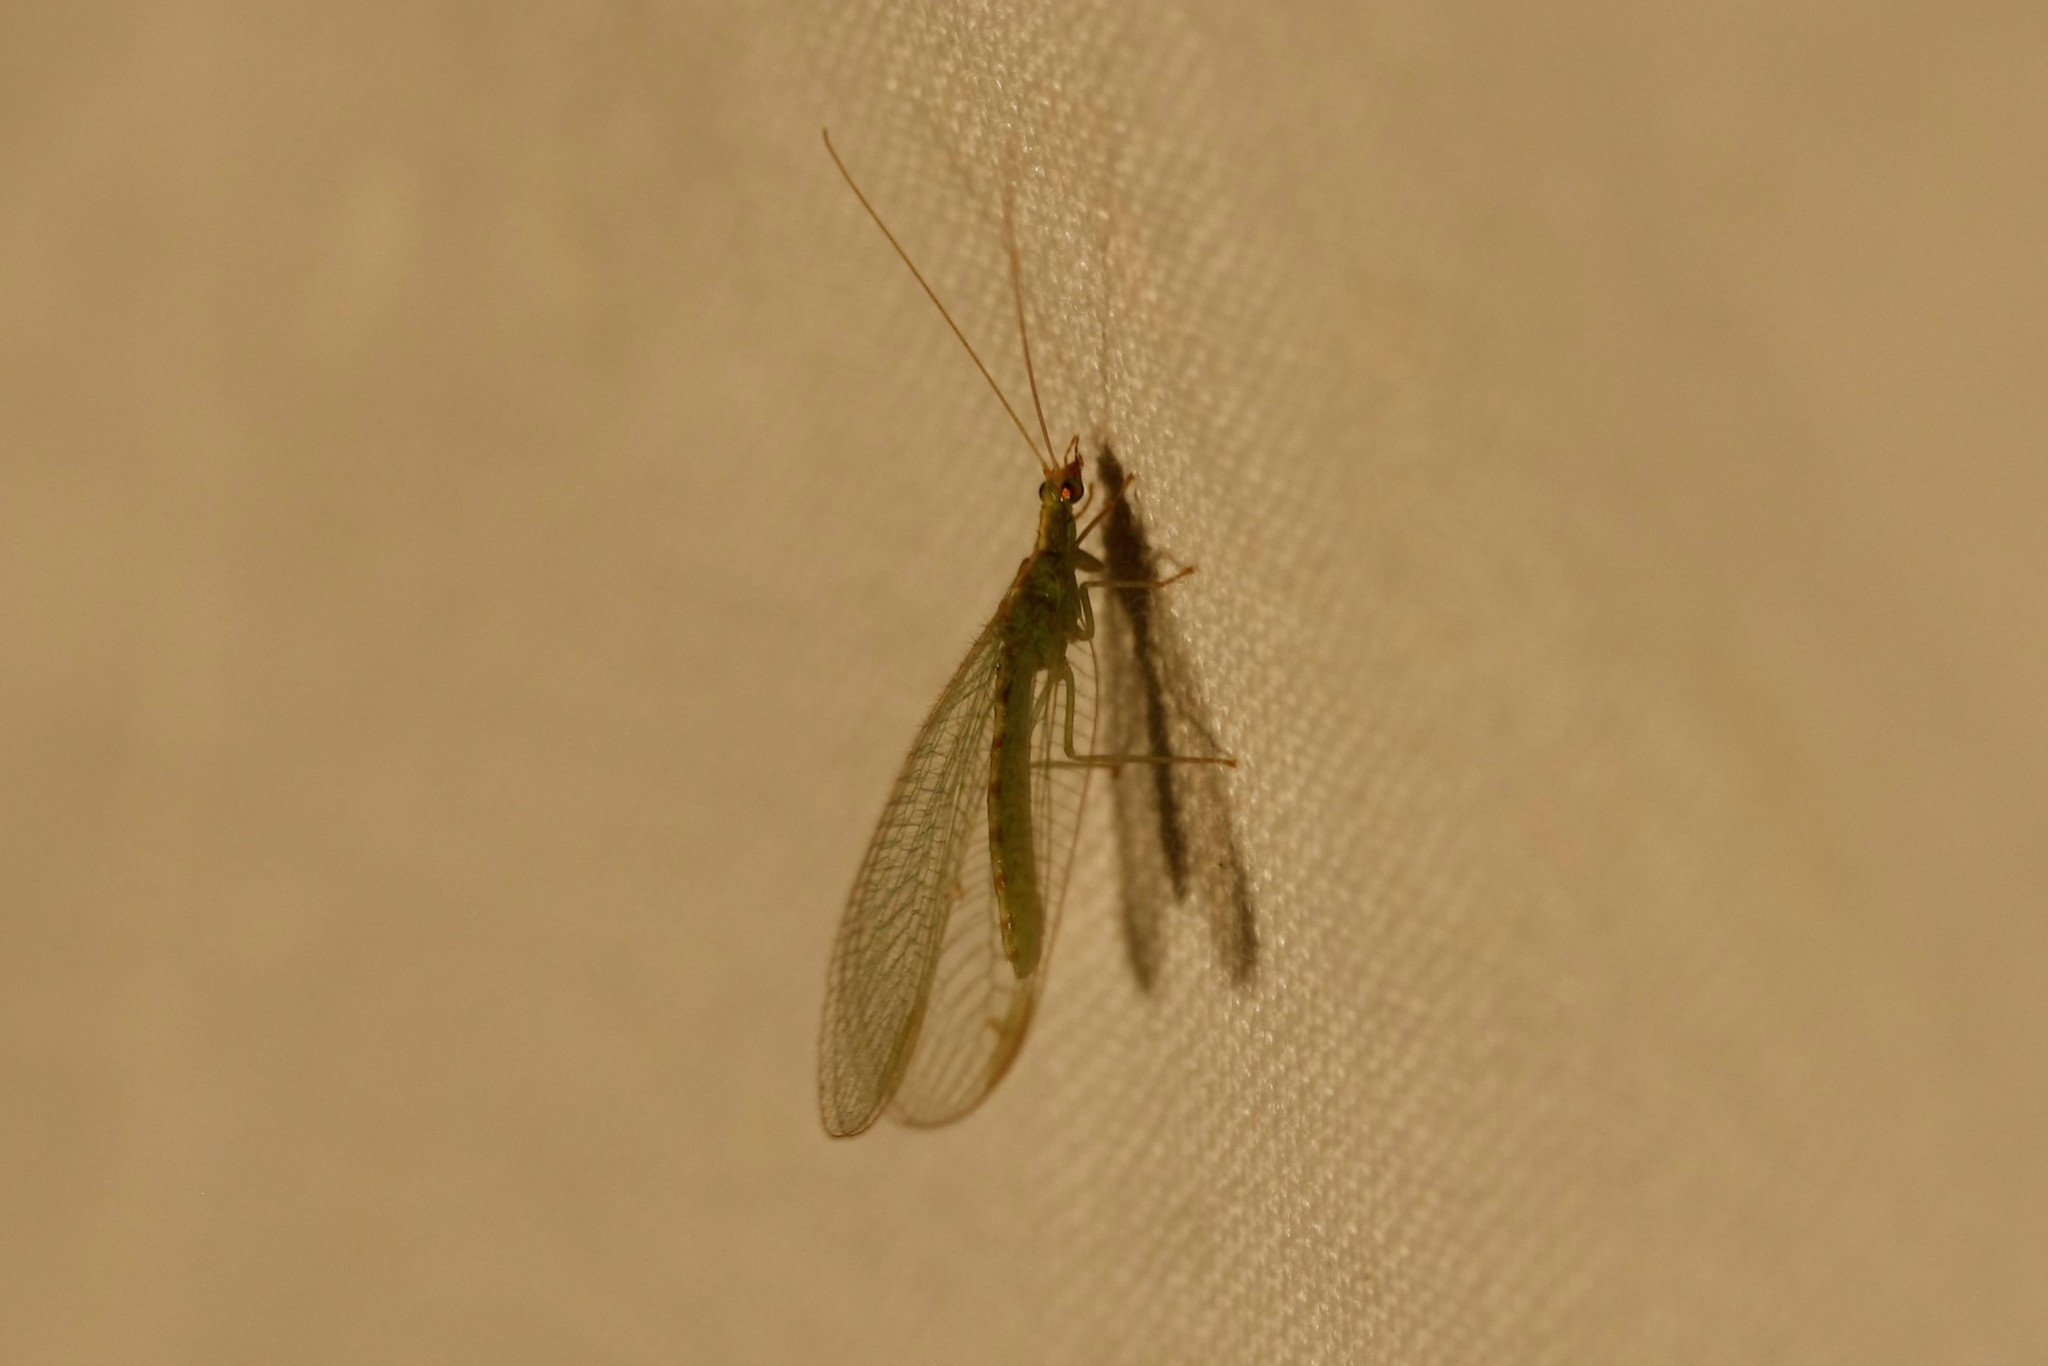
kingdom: Animalia
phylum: Arthropoda
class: Insecta
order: Neuroptera
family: Chrysopidae
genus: Chrysoperla
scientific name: Chrysoperla
